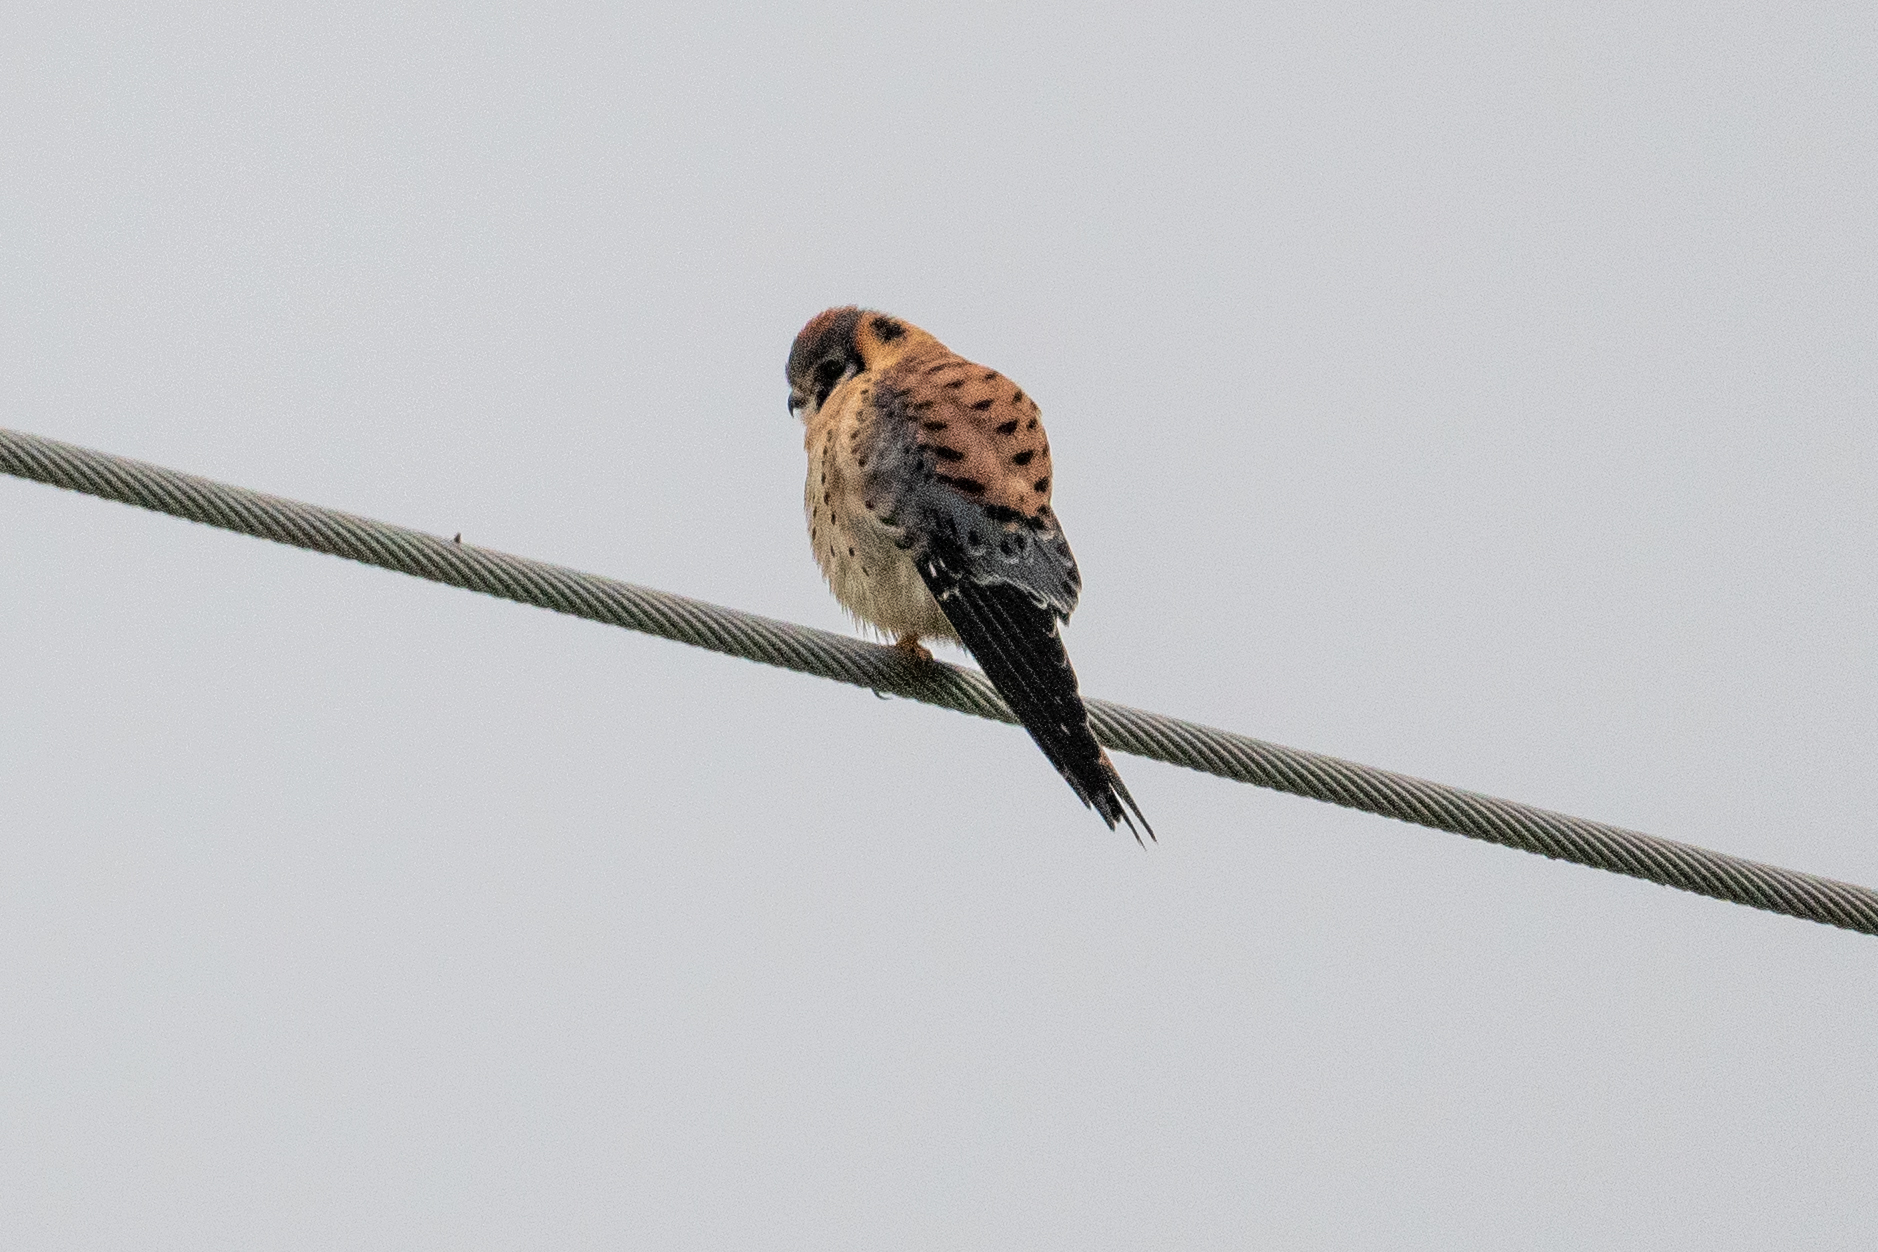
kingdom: Animalia
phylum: Chordata
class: Aves
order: Falconiformes
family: Falconidae
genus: Falco
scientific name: Falco sparverius
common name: American kestrel
